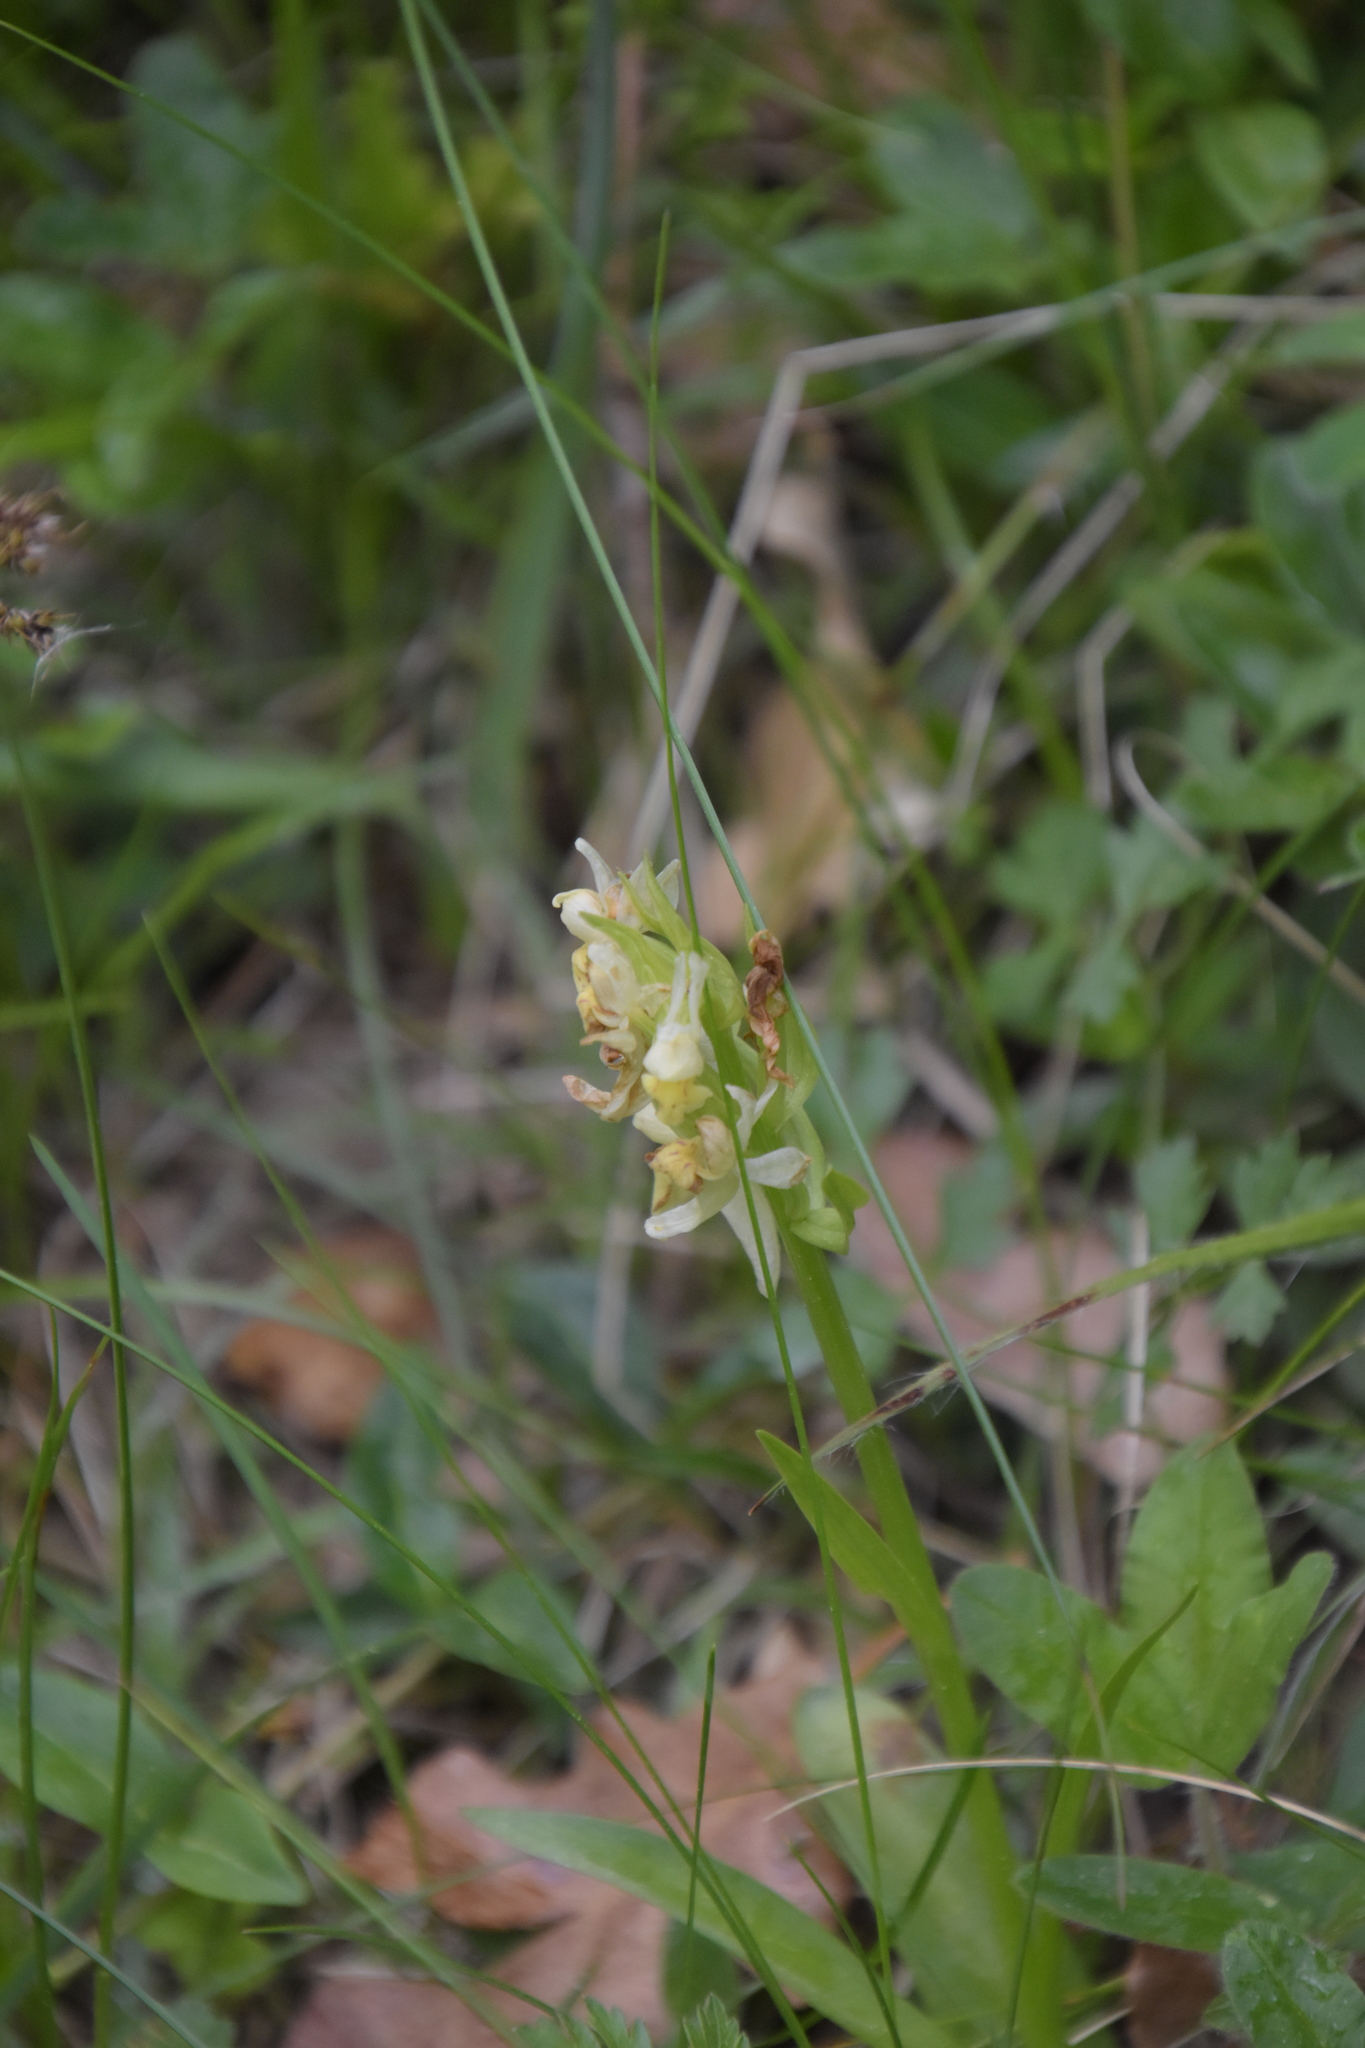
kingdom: Plantae
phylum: Tracheophyta
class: Liliopsida
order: Asparagales
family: Orchidaceae
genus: Dactylorhiza
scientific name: Dactylorhiza sambucina
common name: Elder-flowered orchid
